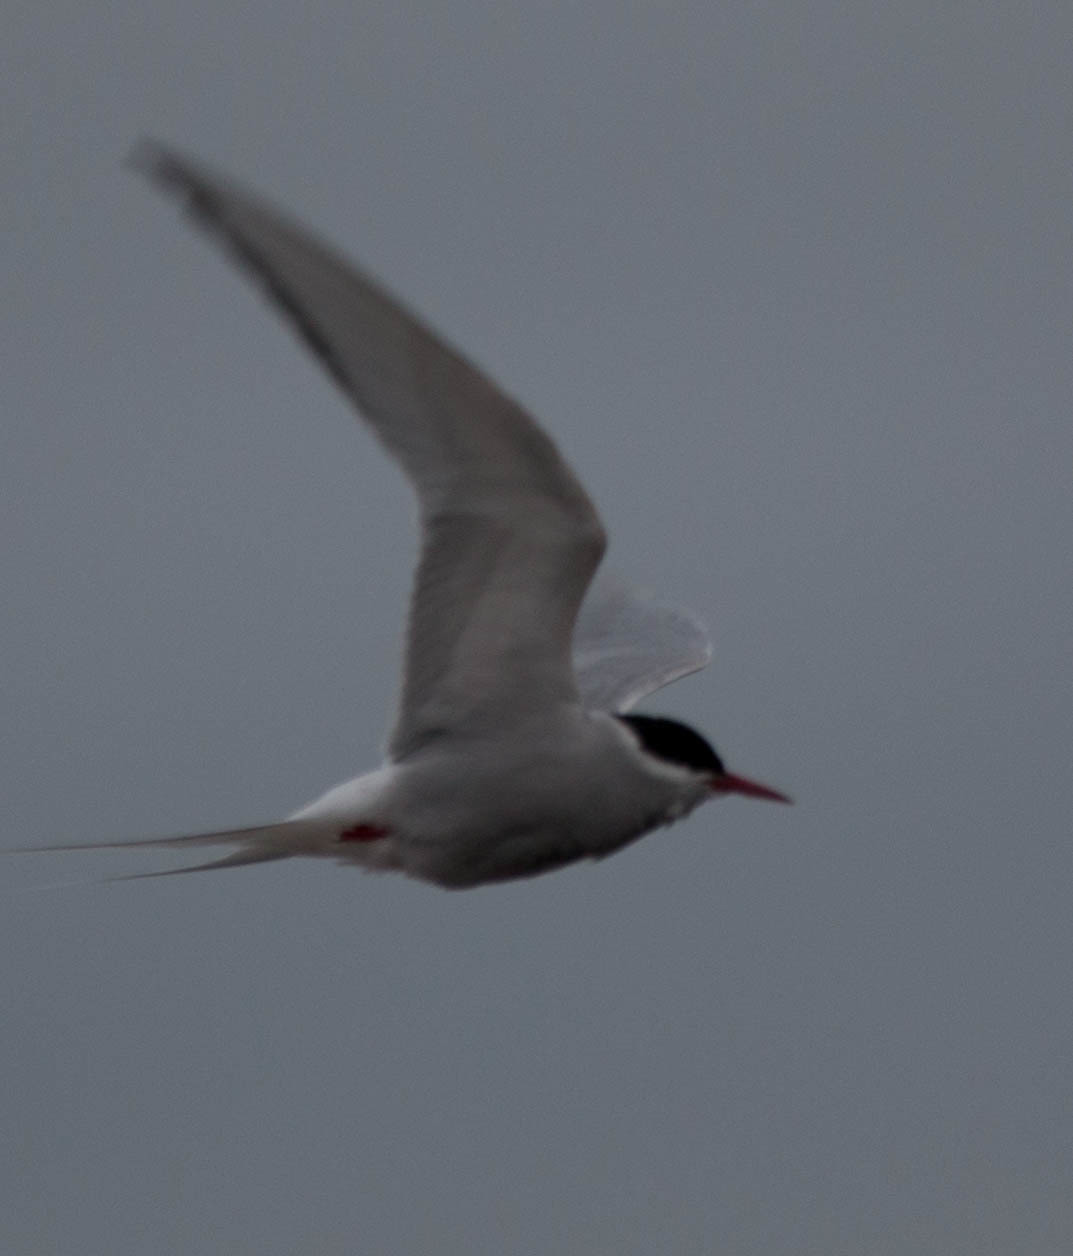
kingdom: Animalia
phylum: Chordata
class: Aves
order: Charadriiformes
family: Laridae
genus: Sterna
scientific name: Sterna paradisaea
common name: Arctic tern
